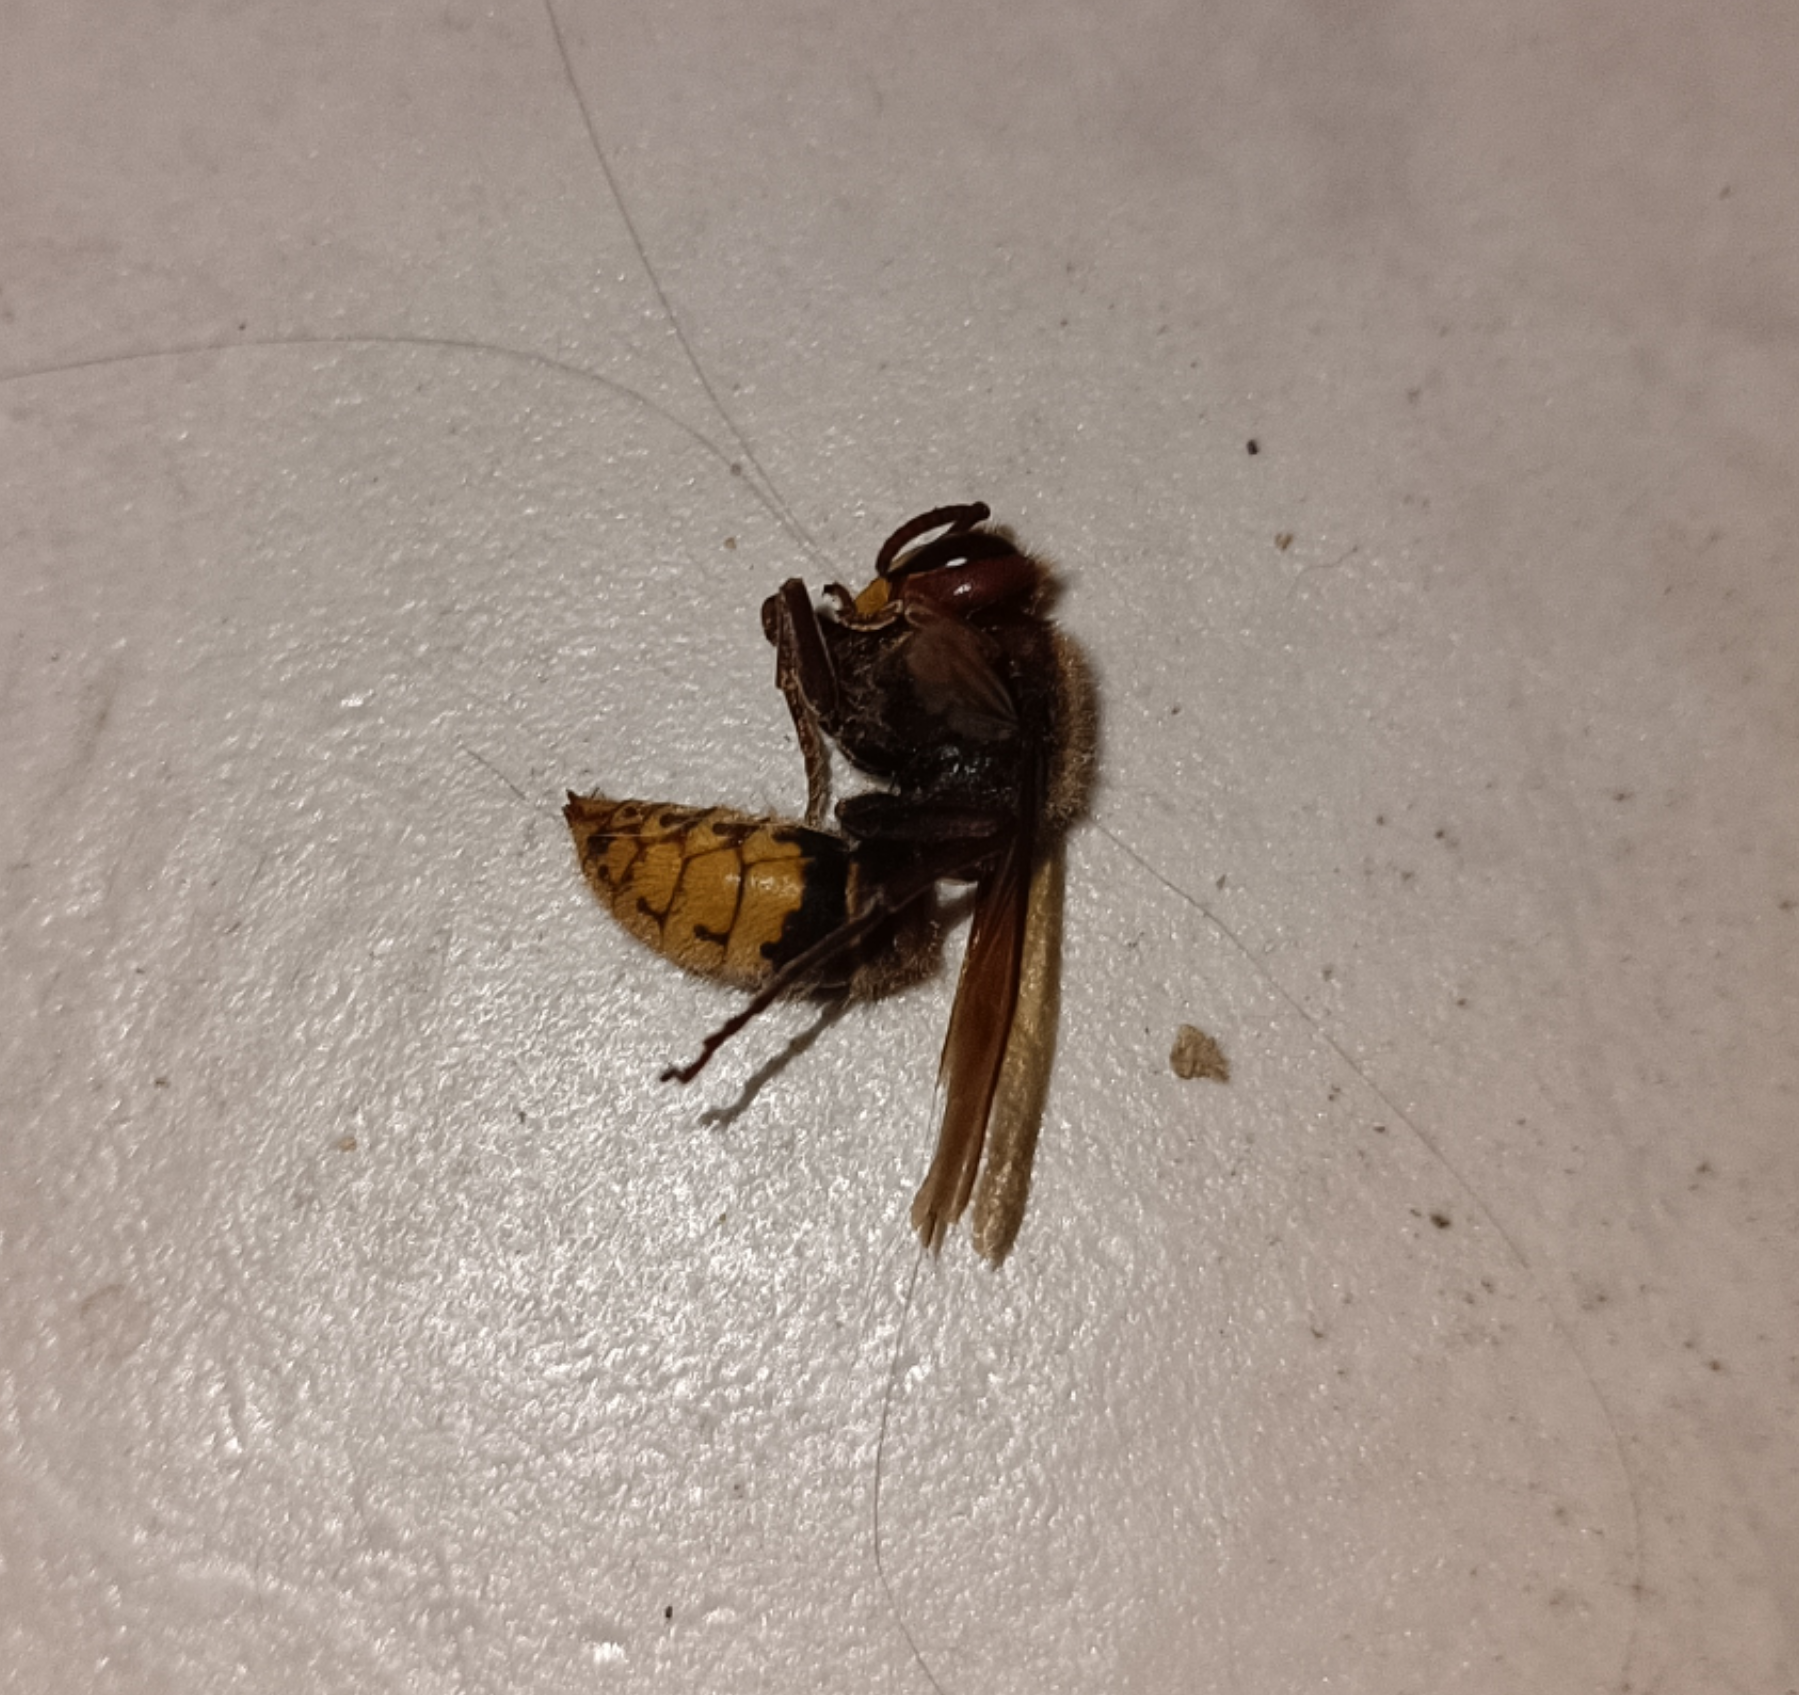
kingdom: Animalia
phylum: Arthropoda
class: Insecta
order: Hymenoptera
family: Vespidae
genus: Vespa
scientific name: Vespa crabro
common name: Hornet
